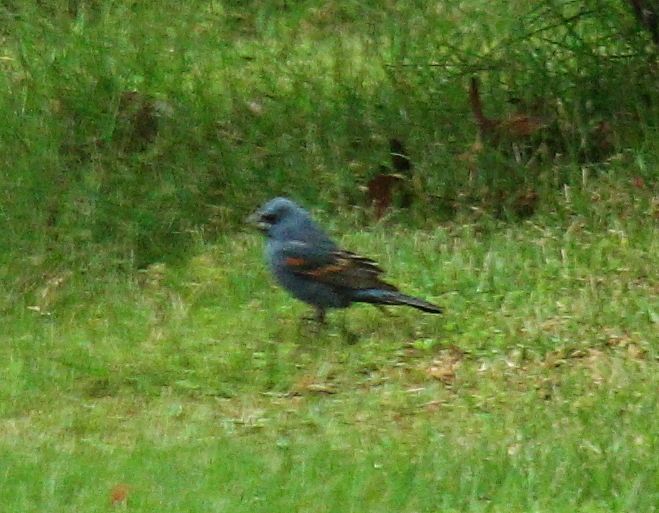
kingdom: Animalia
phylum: Chordata
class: Aves
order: Passeriformes
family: Cardinalidae
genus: Passerina
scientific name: Passerina caerulea
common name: Blue grosbeak
